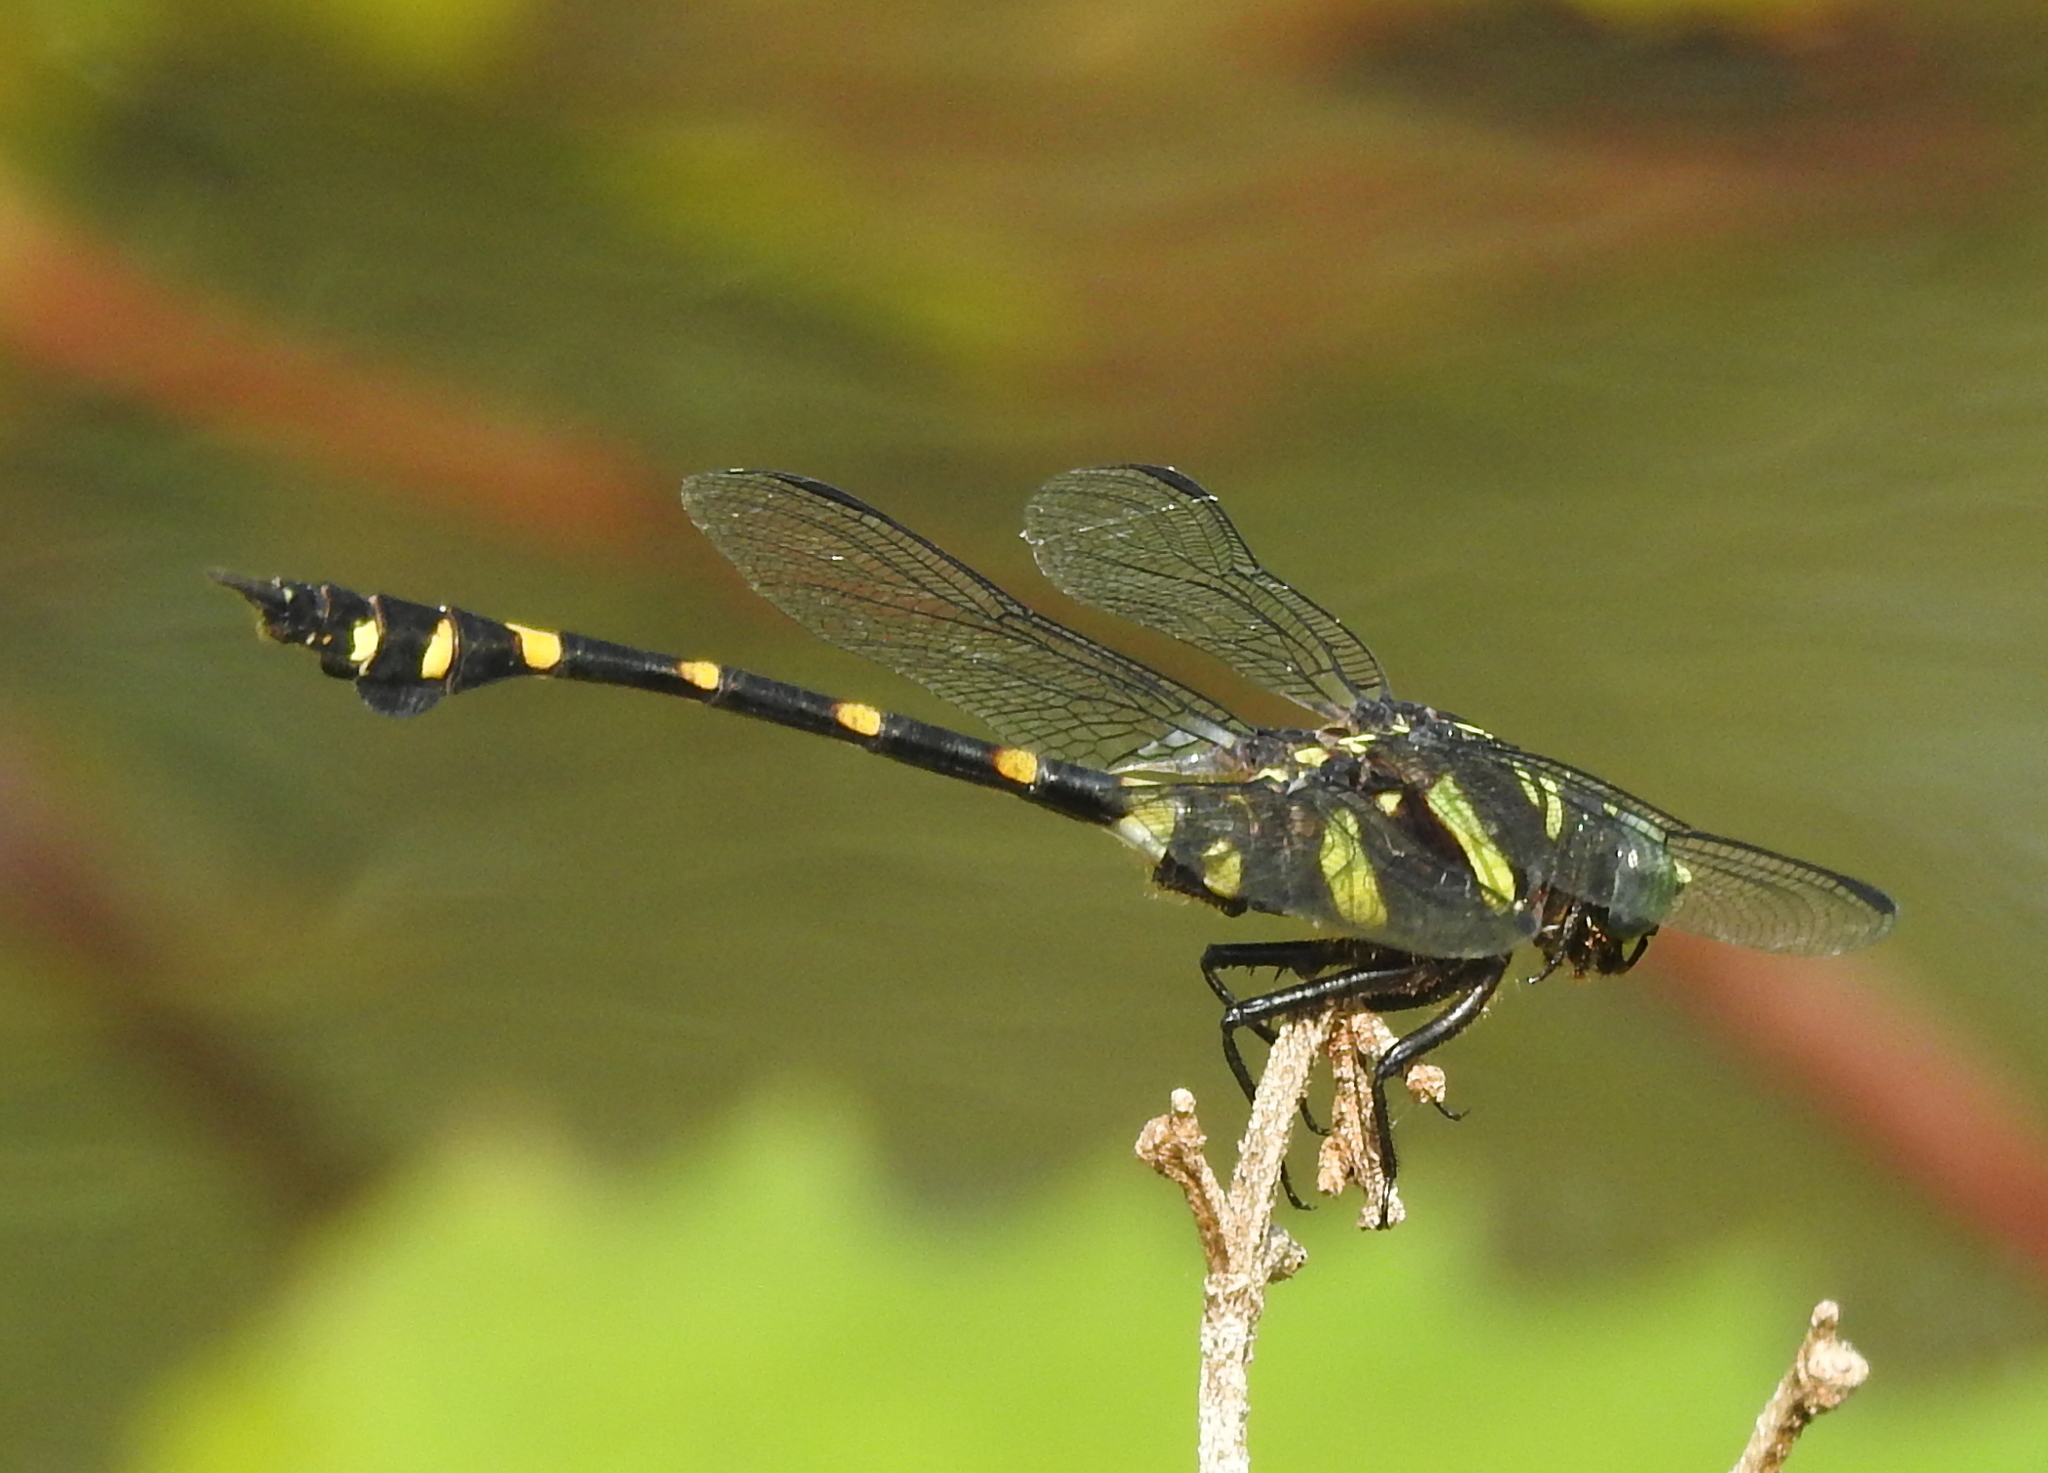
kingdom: Animalia
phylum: Arthropoda
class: Insecta
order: Odonata
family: Gomphidae
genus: Ictinogomphus
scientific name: Ictinogomphus decoratus
